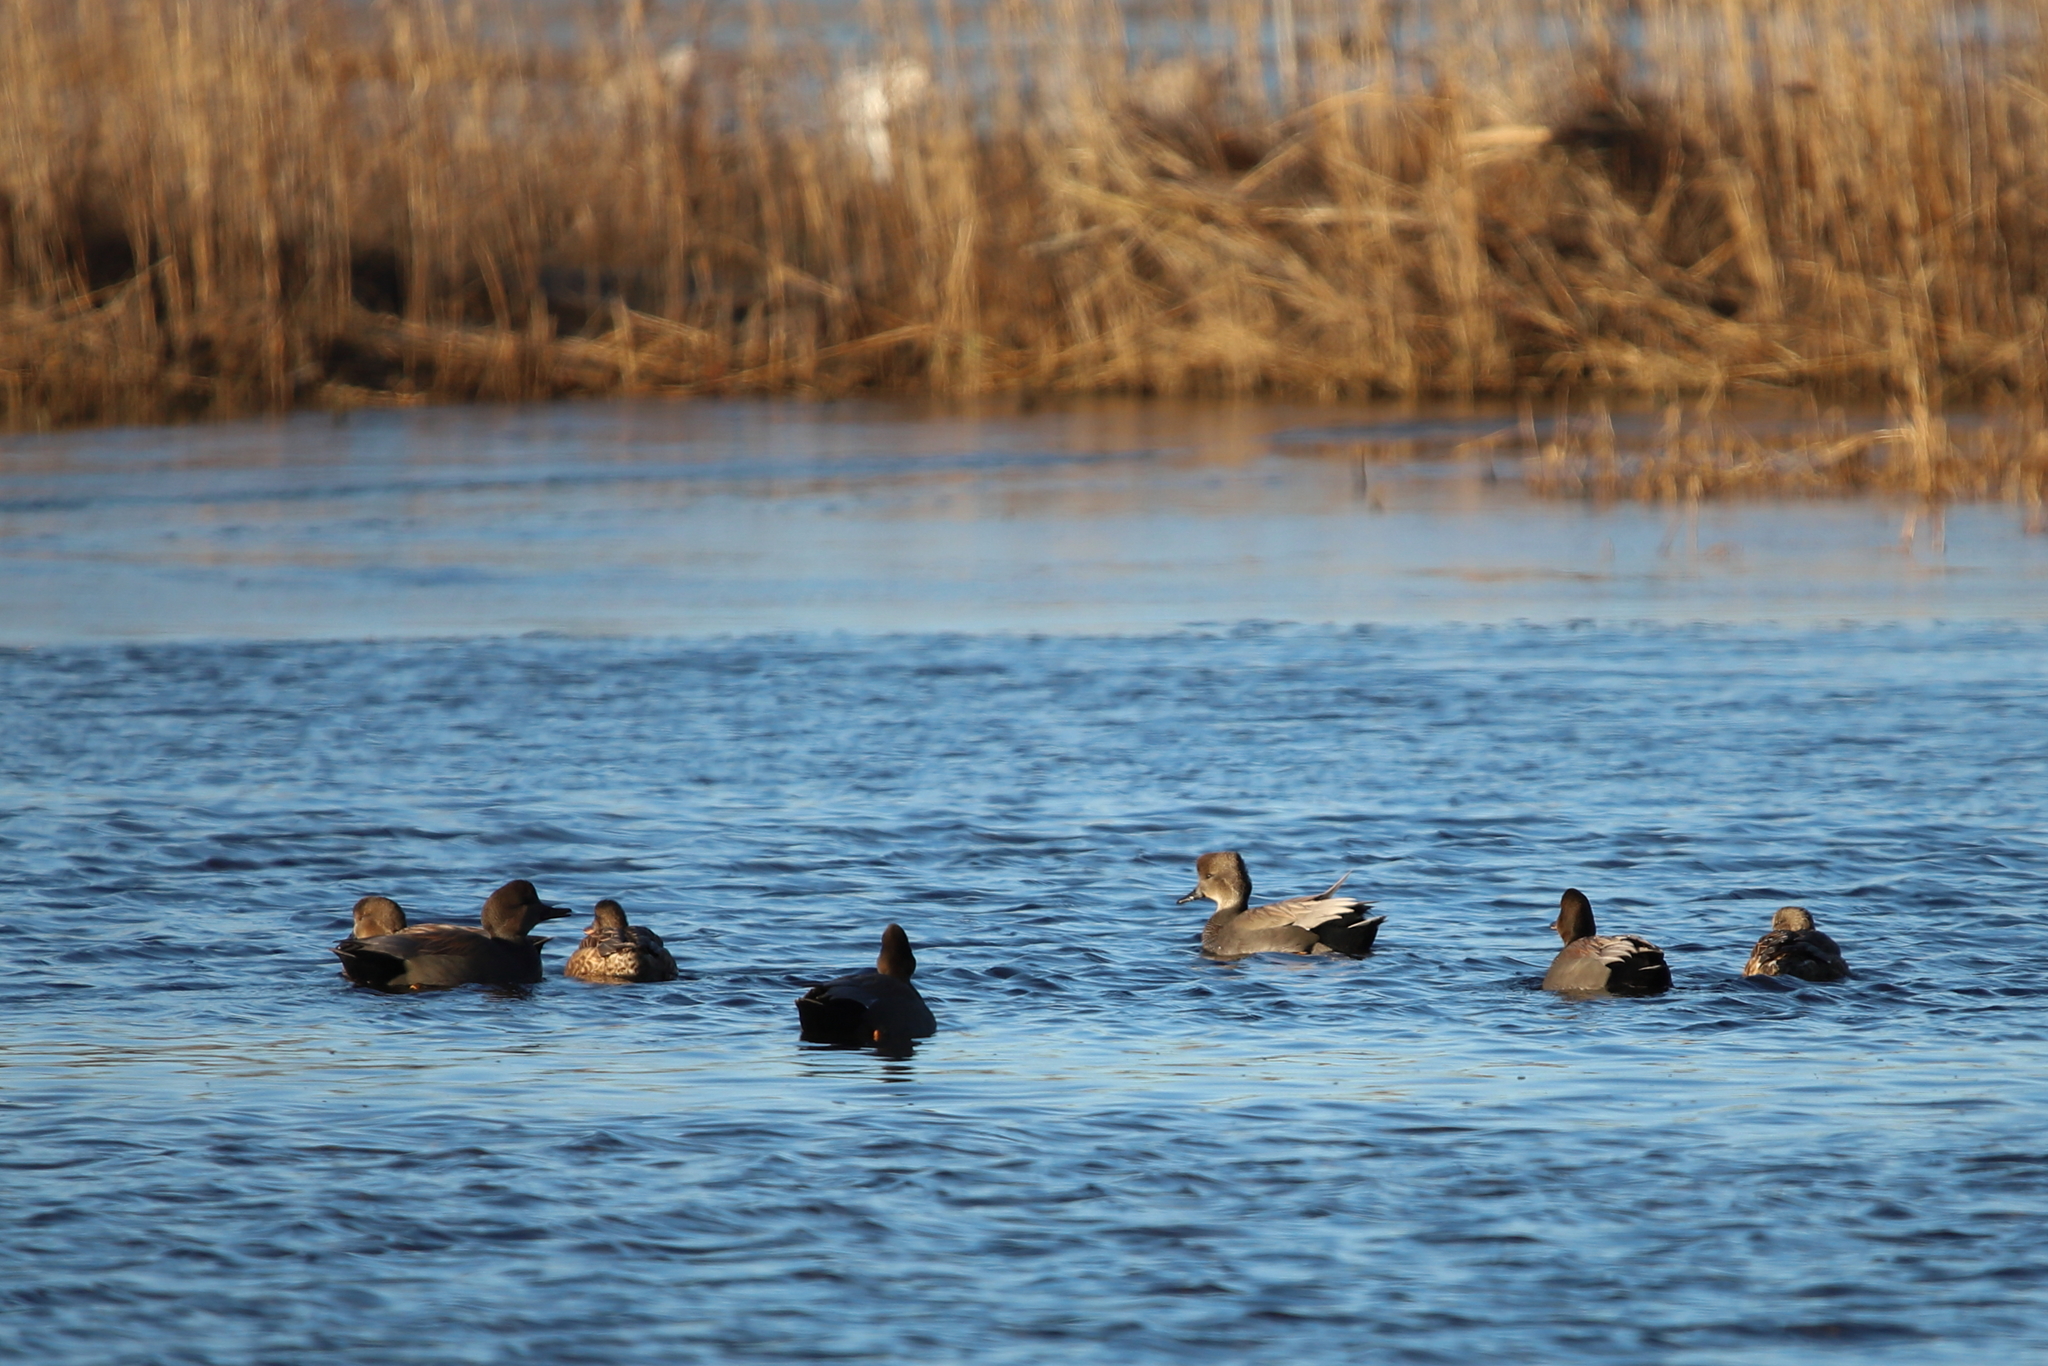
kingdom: Animalia
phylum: Chordata
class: Aves
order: Anseriformes
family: Anatidae
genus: Mareca
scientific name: Mareca strepera
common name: Gadwall
